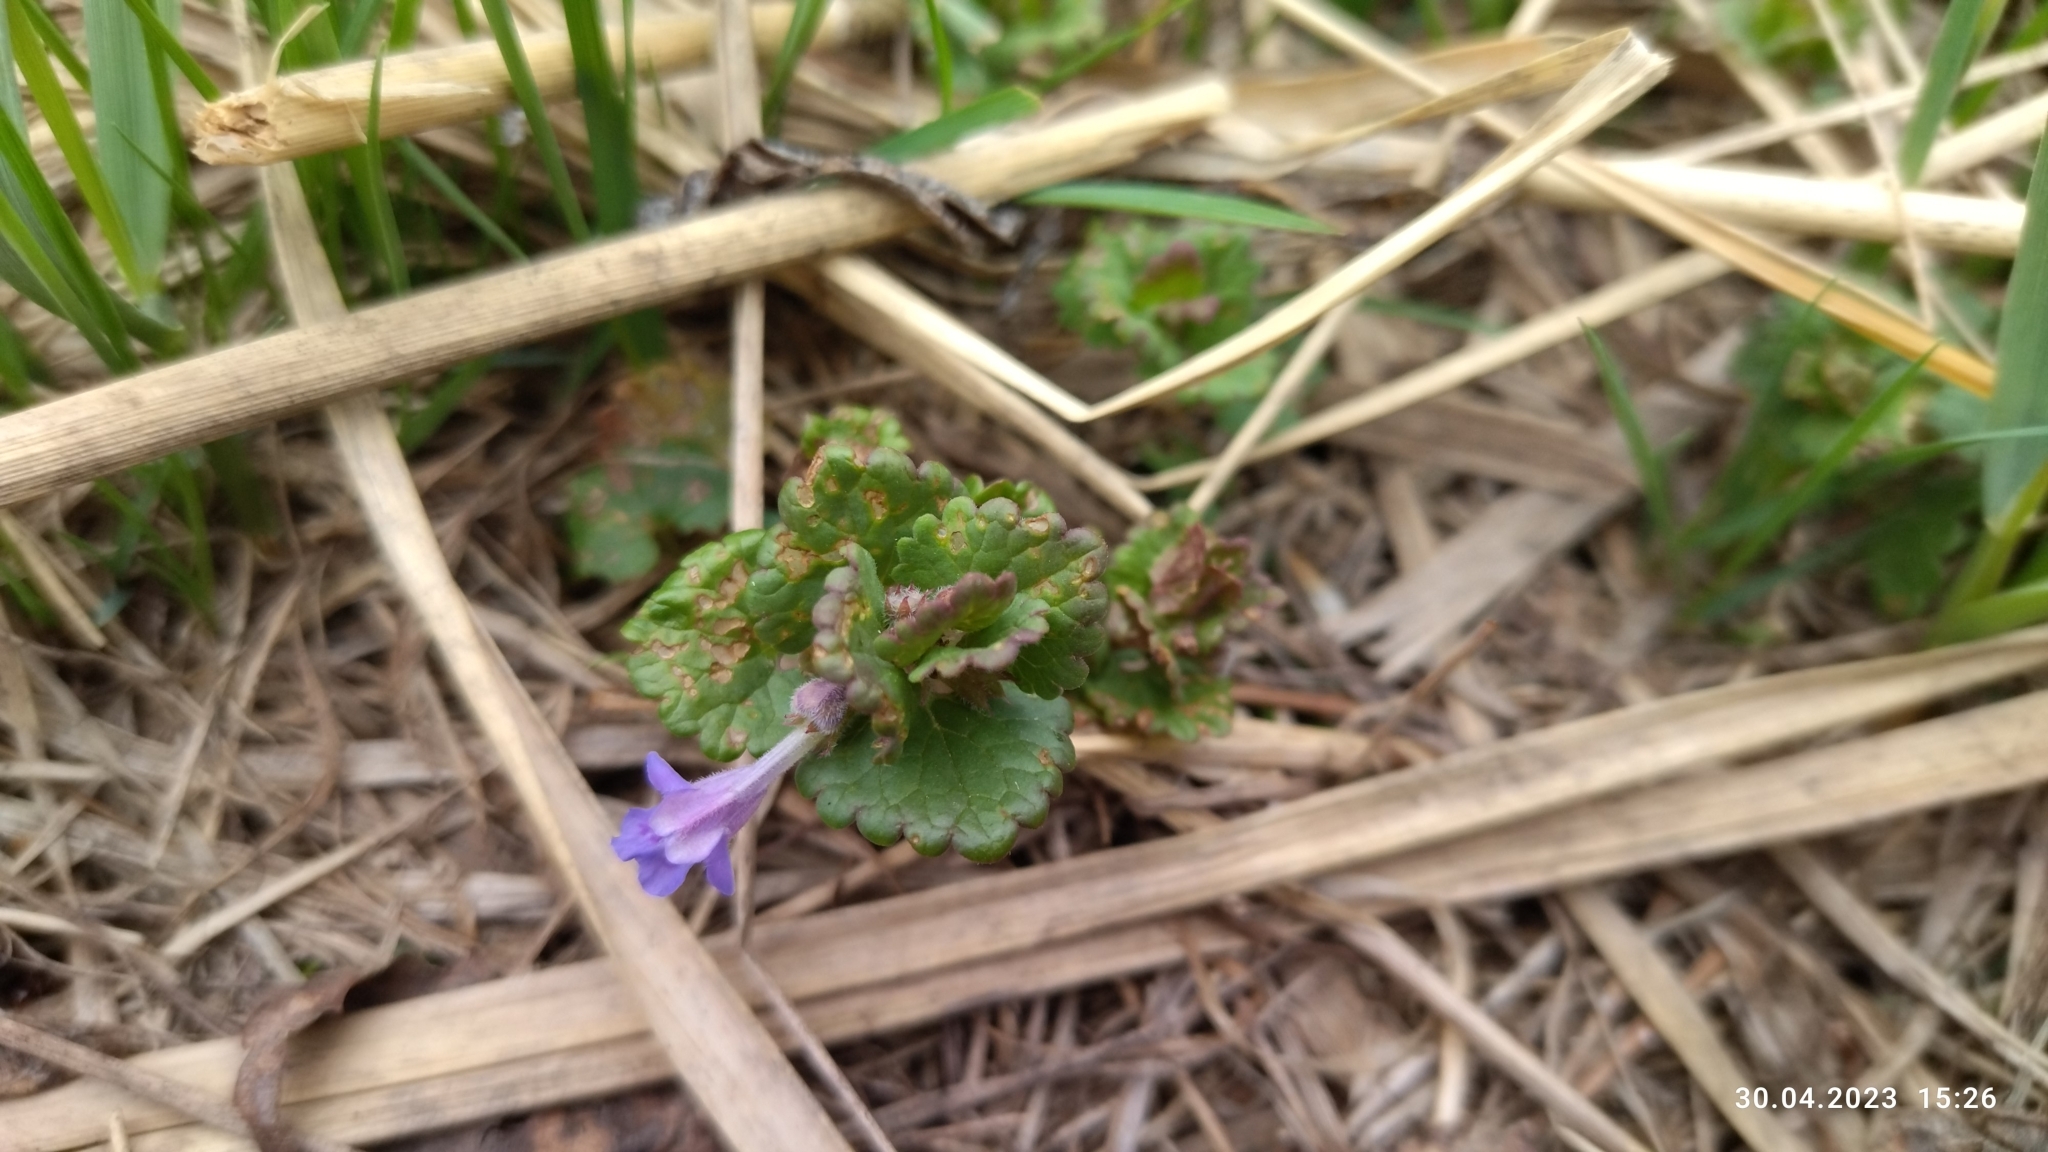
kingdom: Plantae
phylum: Tracheophyta
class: Magnoliopsida
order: Lamiales
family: Lamiaceae
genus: Glechoma
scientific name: Glechoma hederacea
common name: Ground ivy
